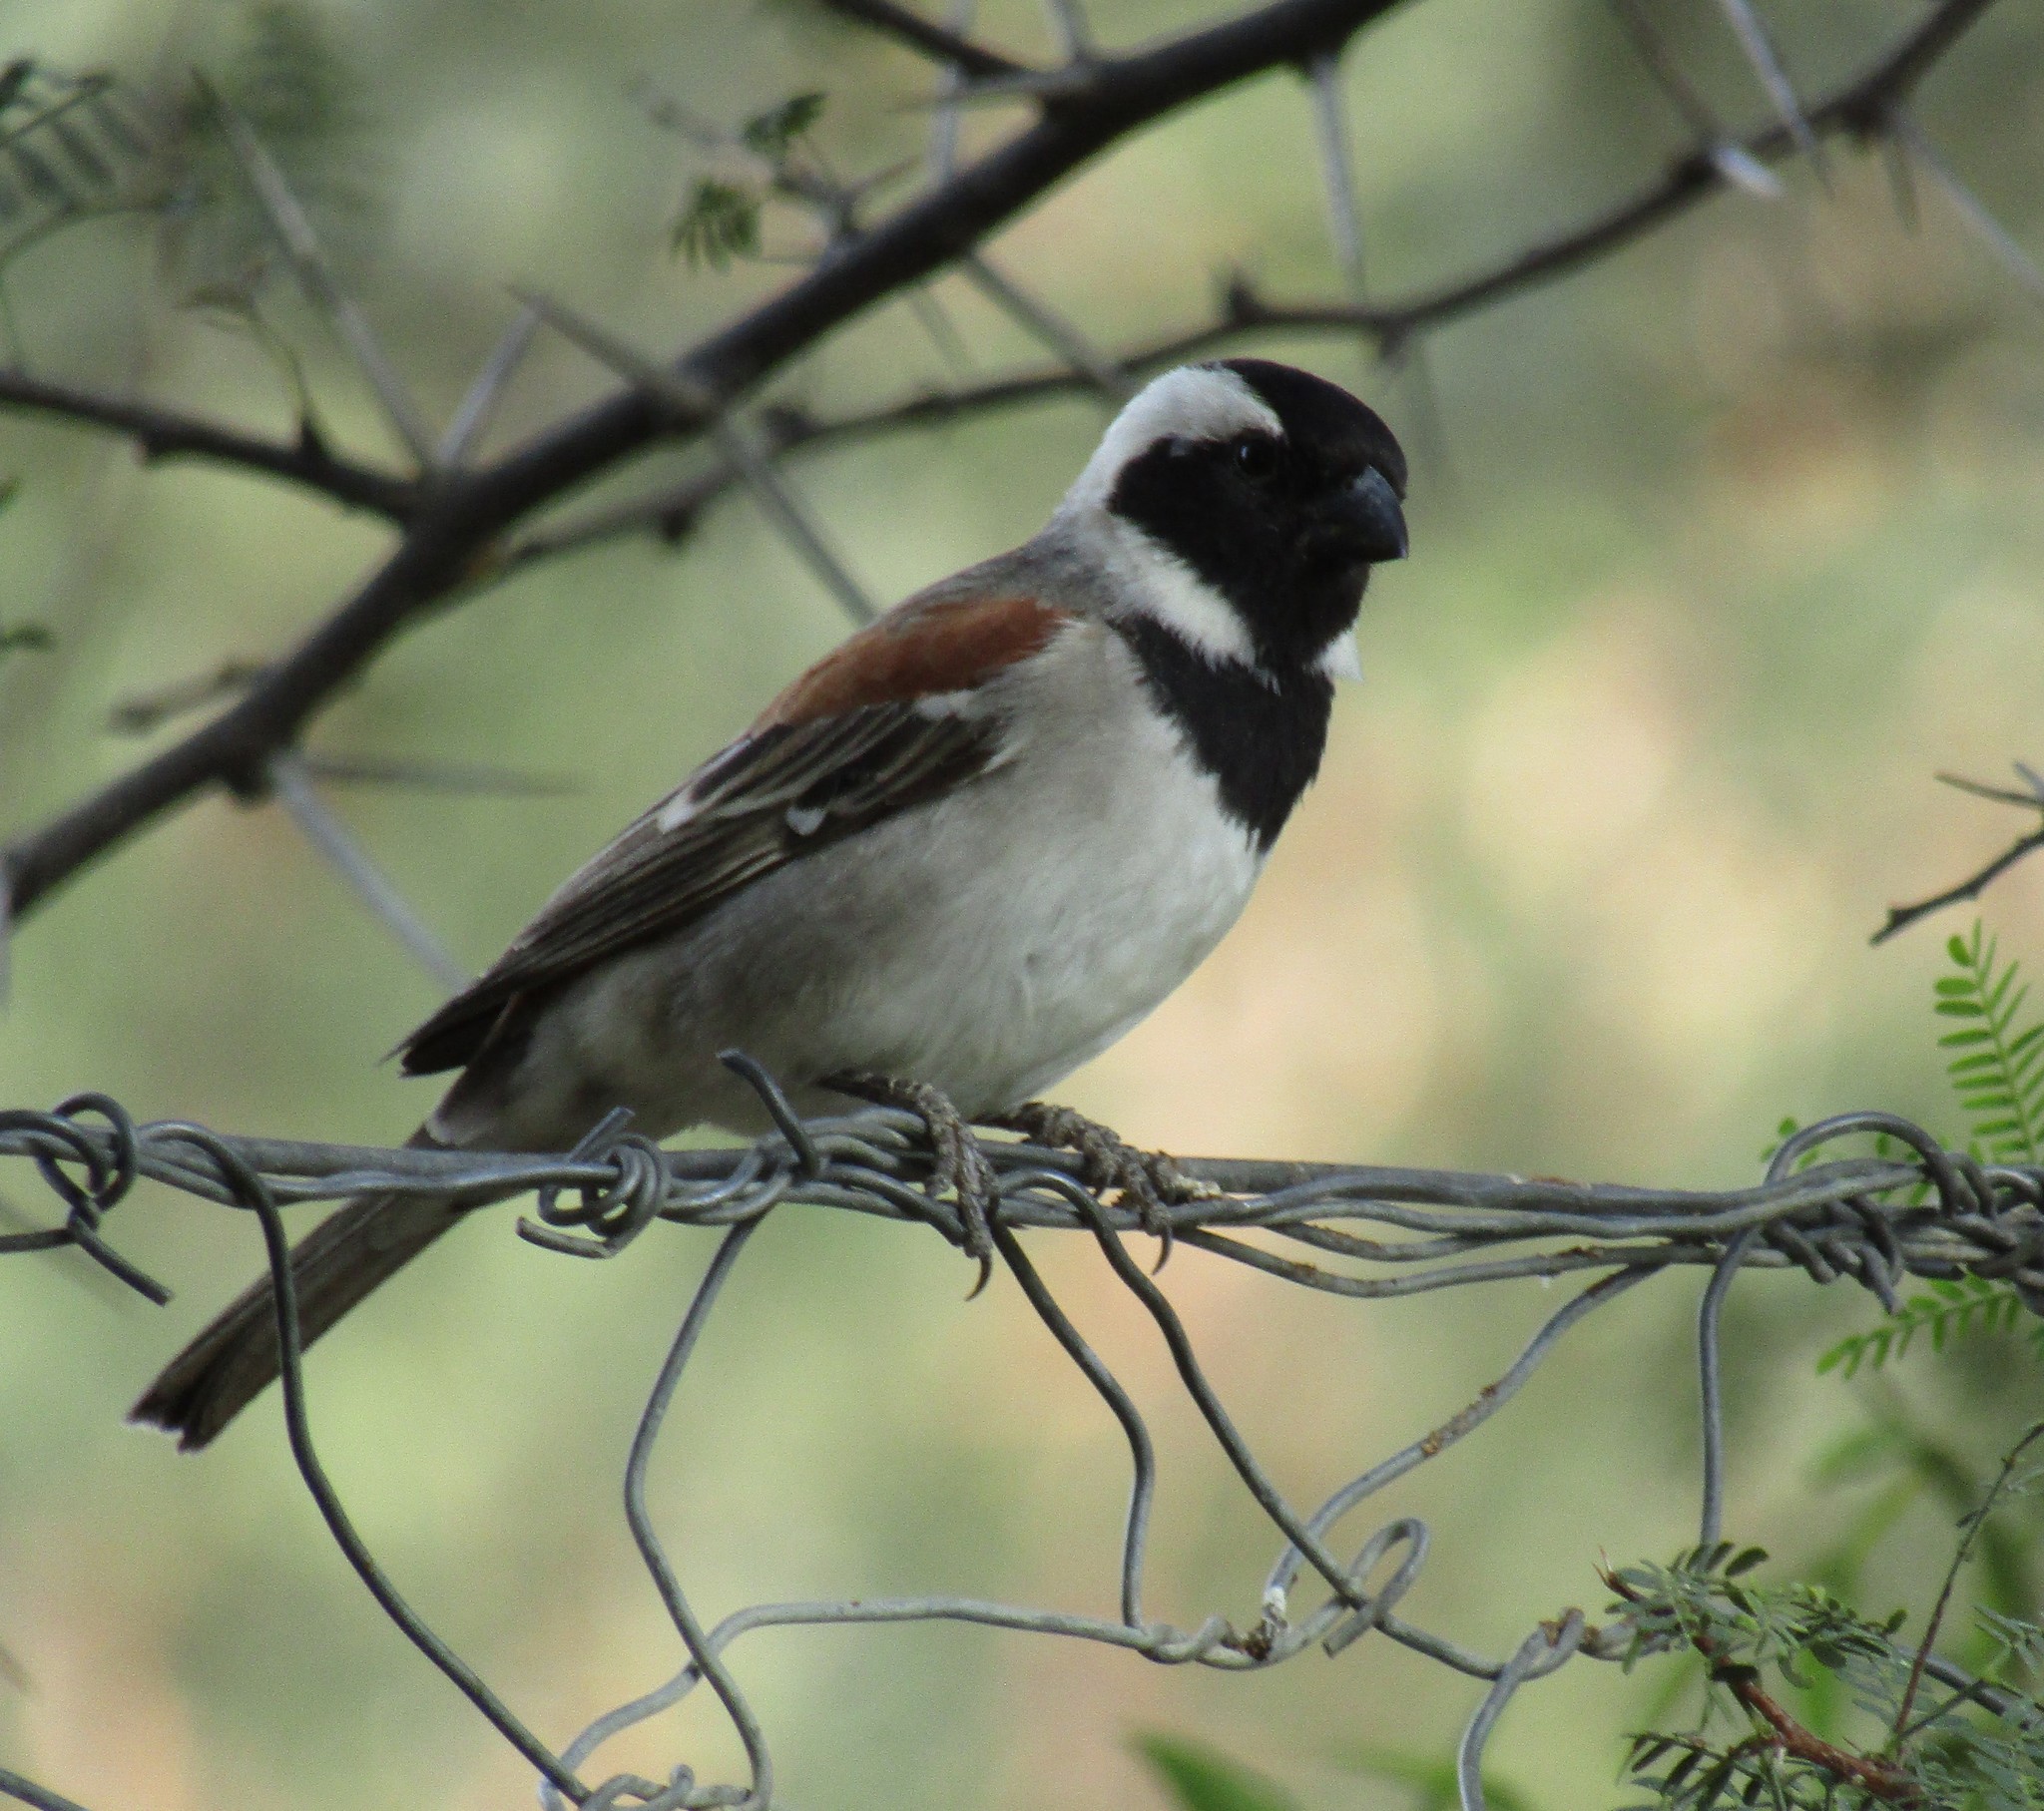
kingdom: Animalia
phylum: Chordata
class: Aves
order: Passeriformes
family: Passeridae
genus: Passer
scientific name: Passer melanurus
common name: Cape sparrow
